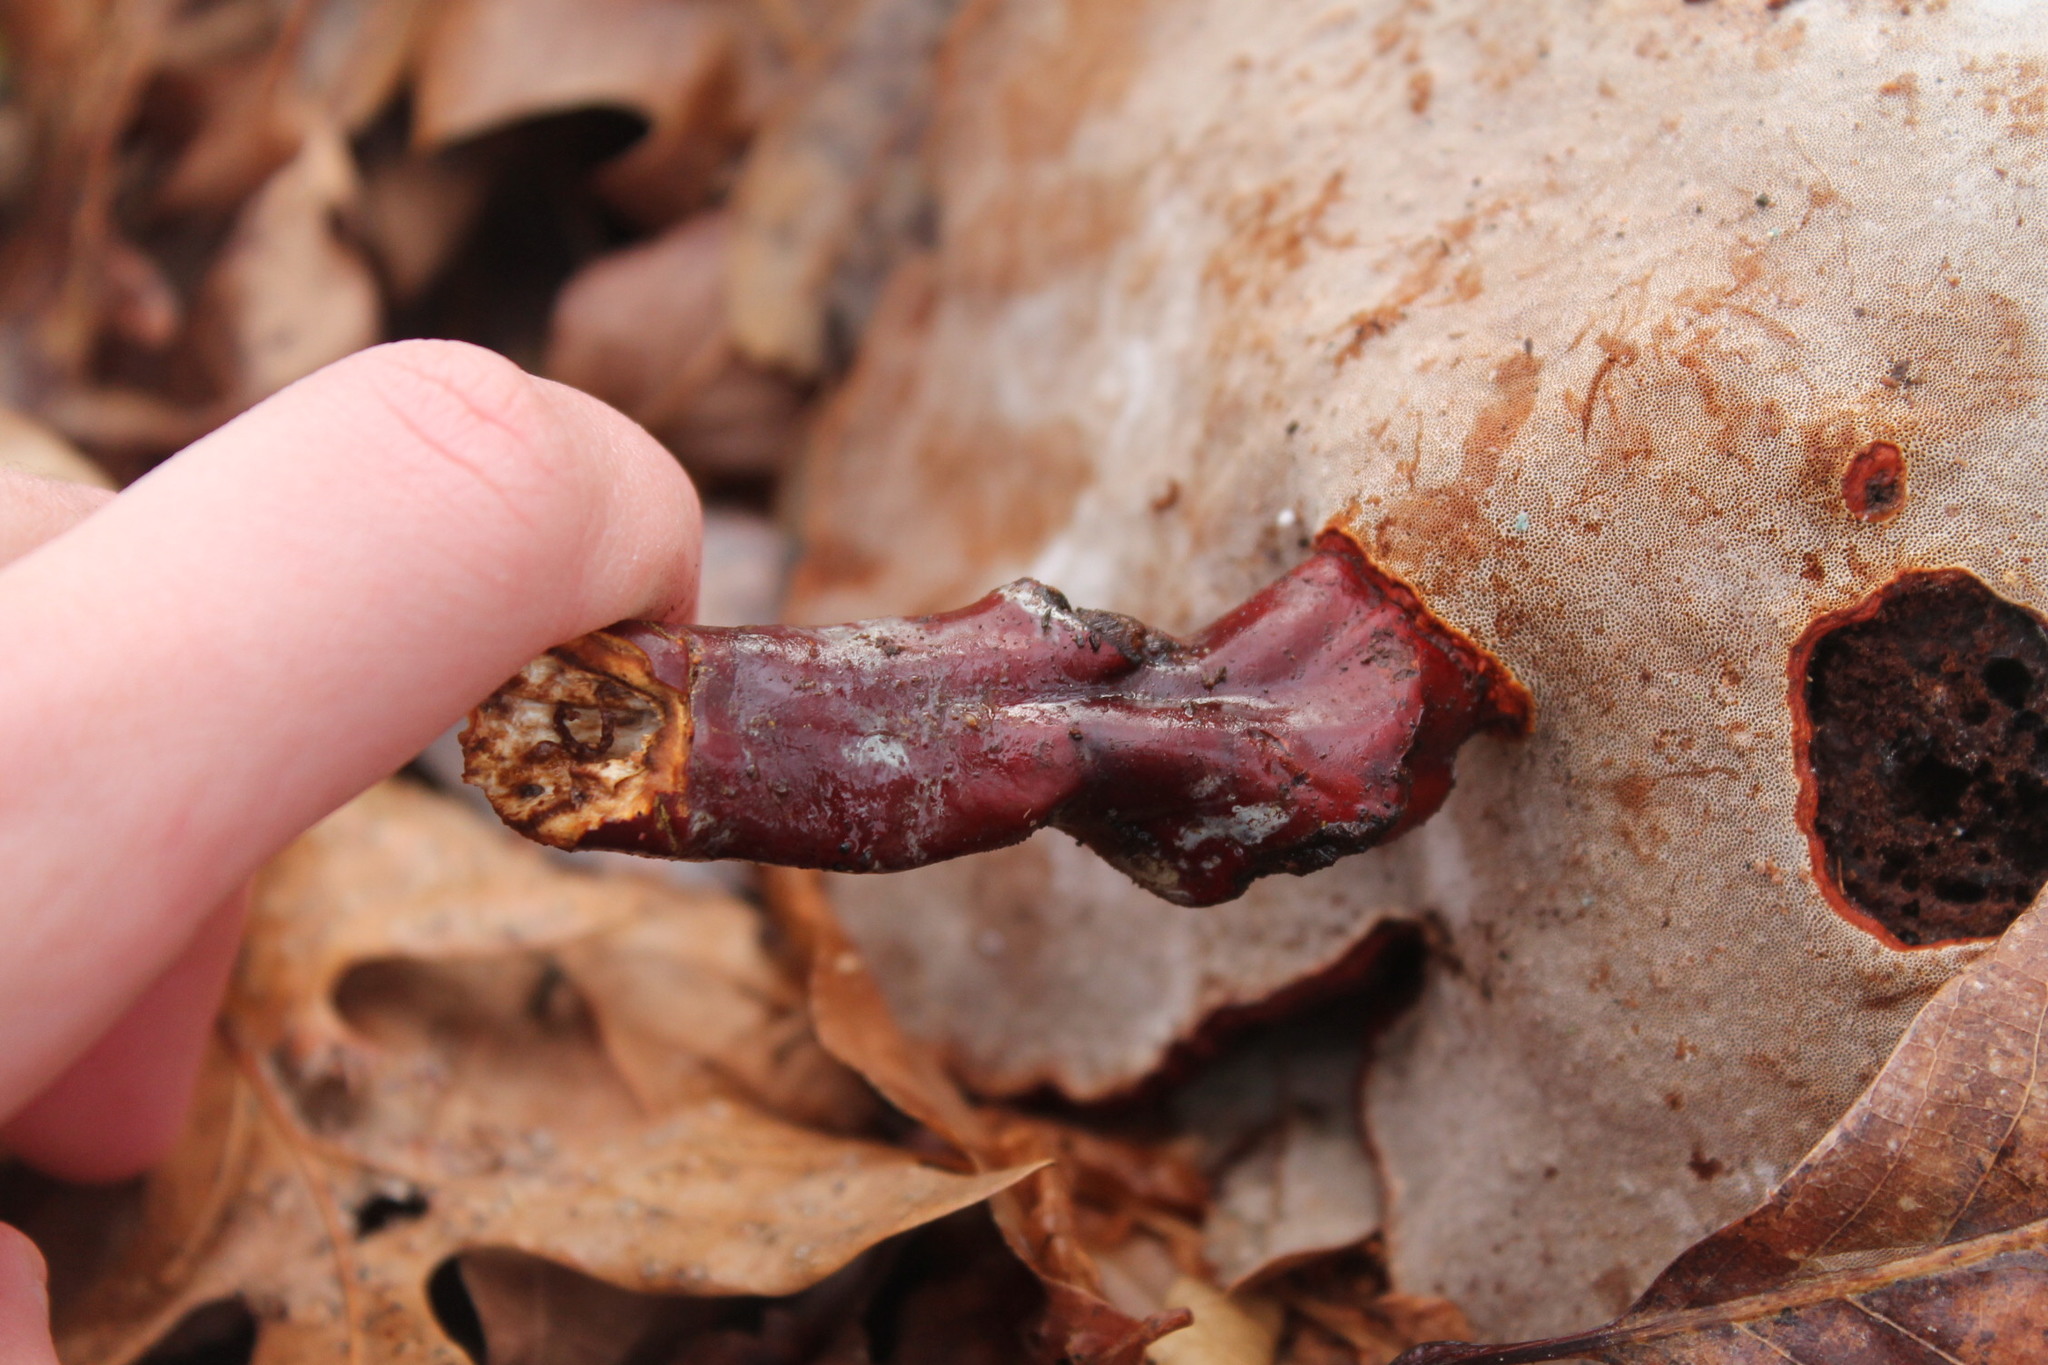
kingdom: Fungi
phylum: Basidiomycota
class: Agaricomycetes
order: Polyporales
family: Polyporaceae
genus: Ganoderma
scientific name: Ganoderma curtisii
